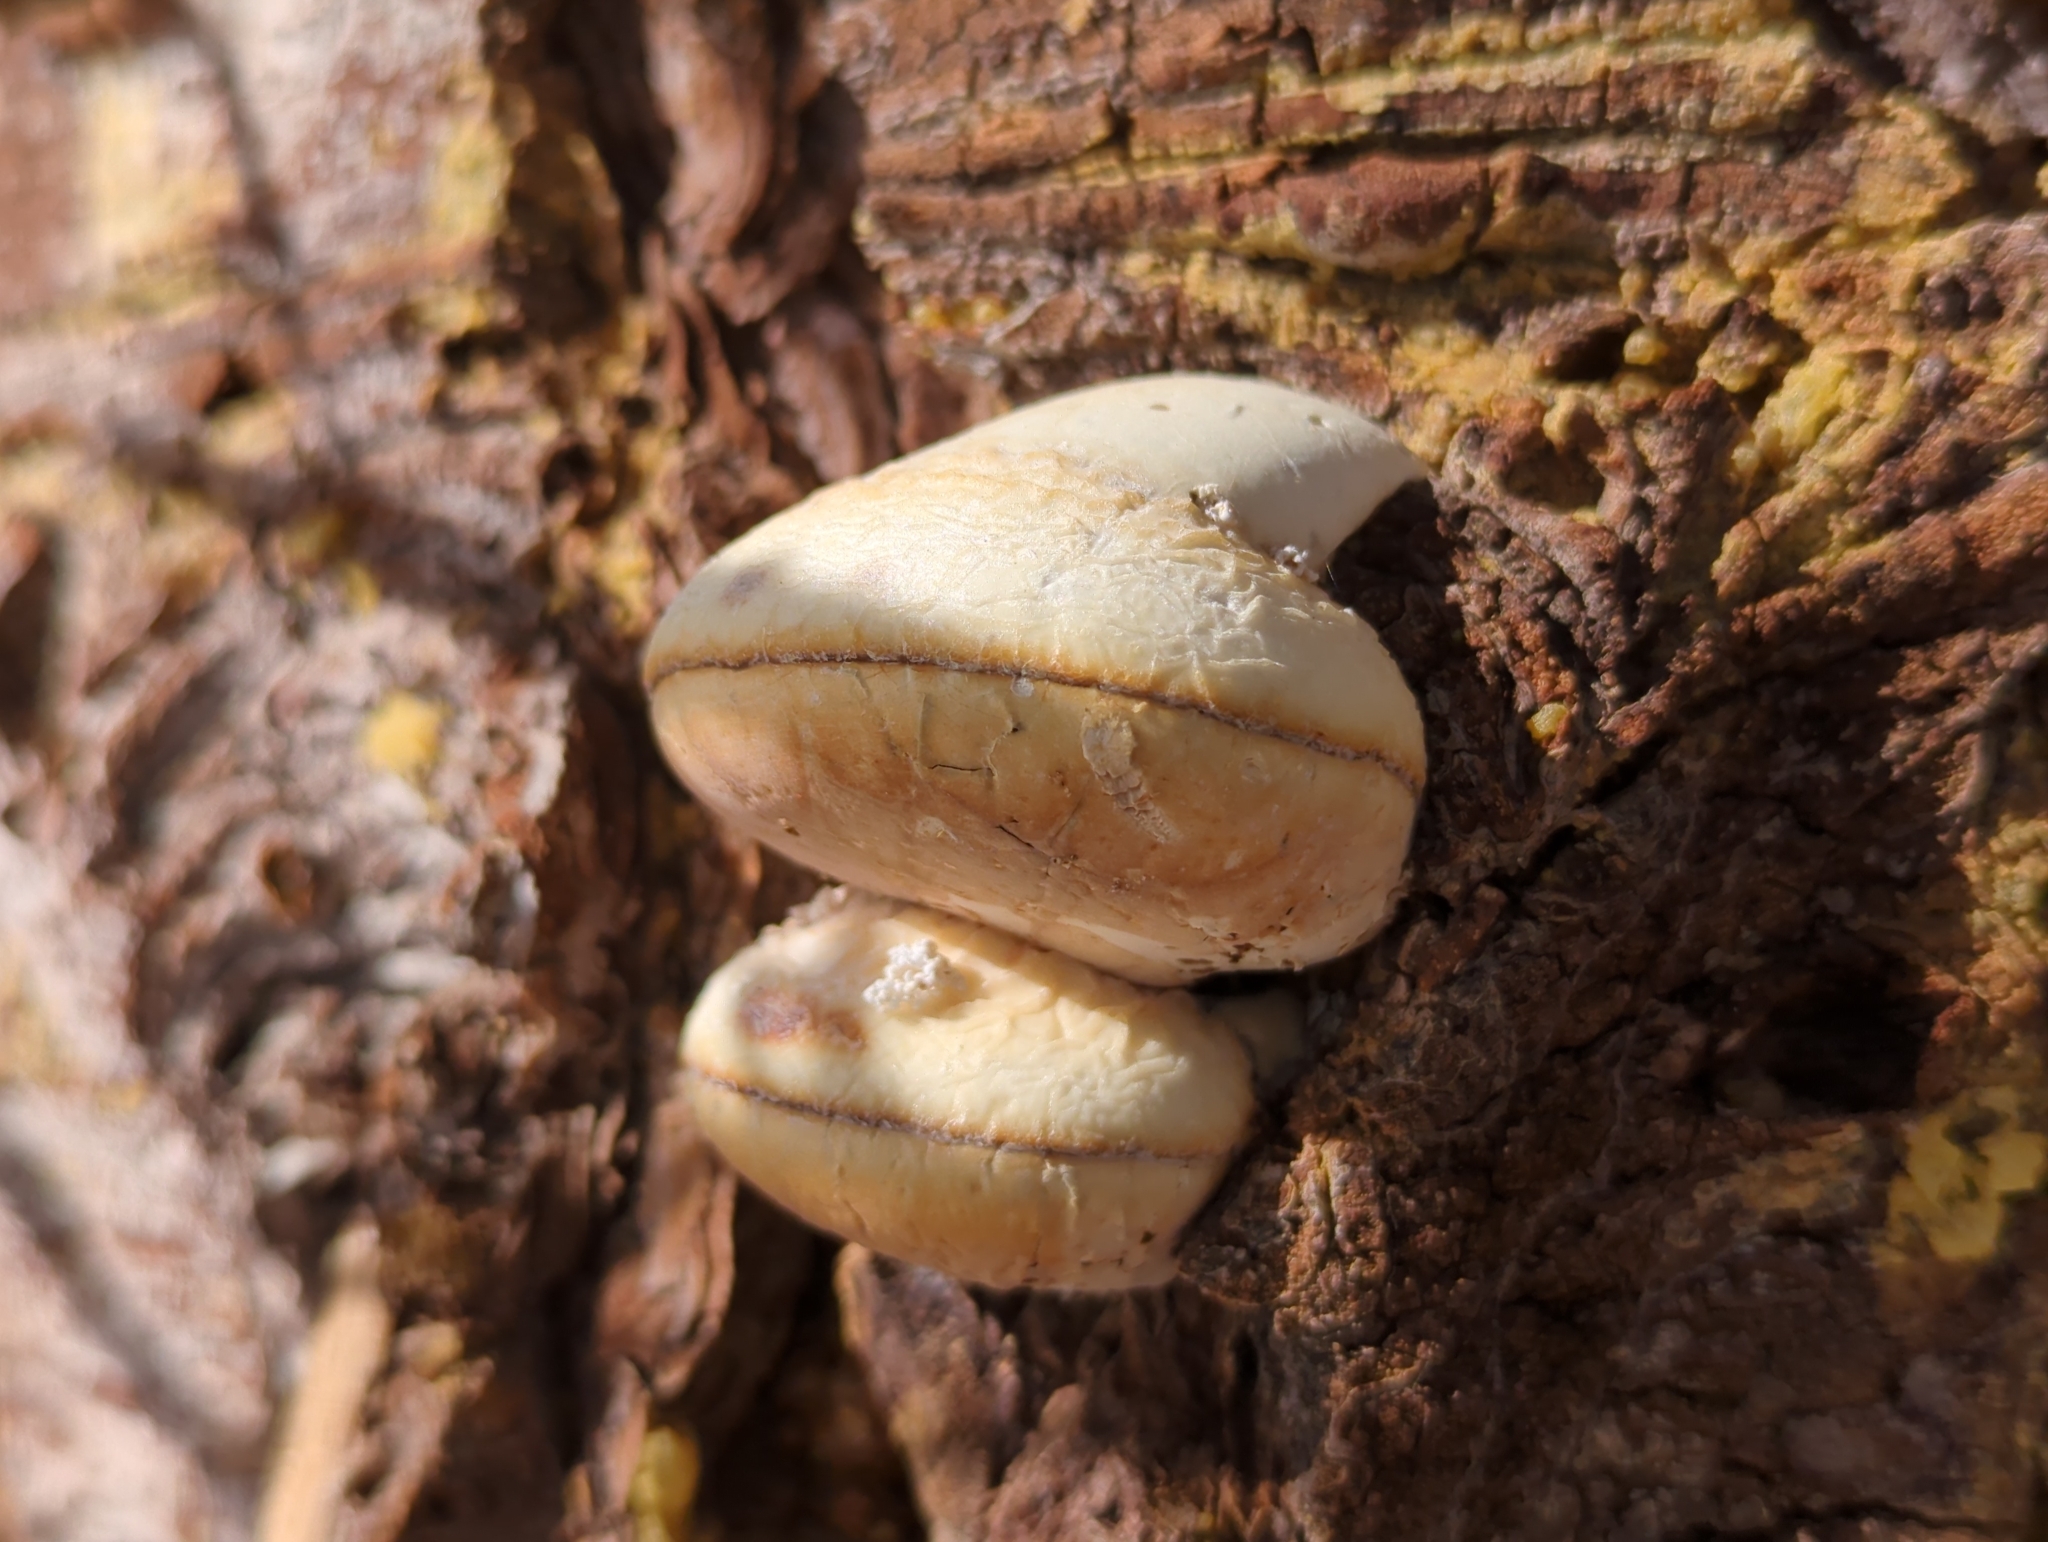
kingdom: Fungi
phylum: Basidiomycota
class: Agaricomycetes
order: Polyporales
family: Polyporaceae
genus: Cryptoporus
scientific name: Cryptoporus volvatus
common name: Veiled polypore
